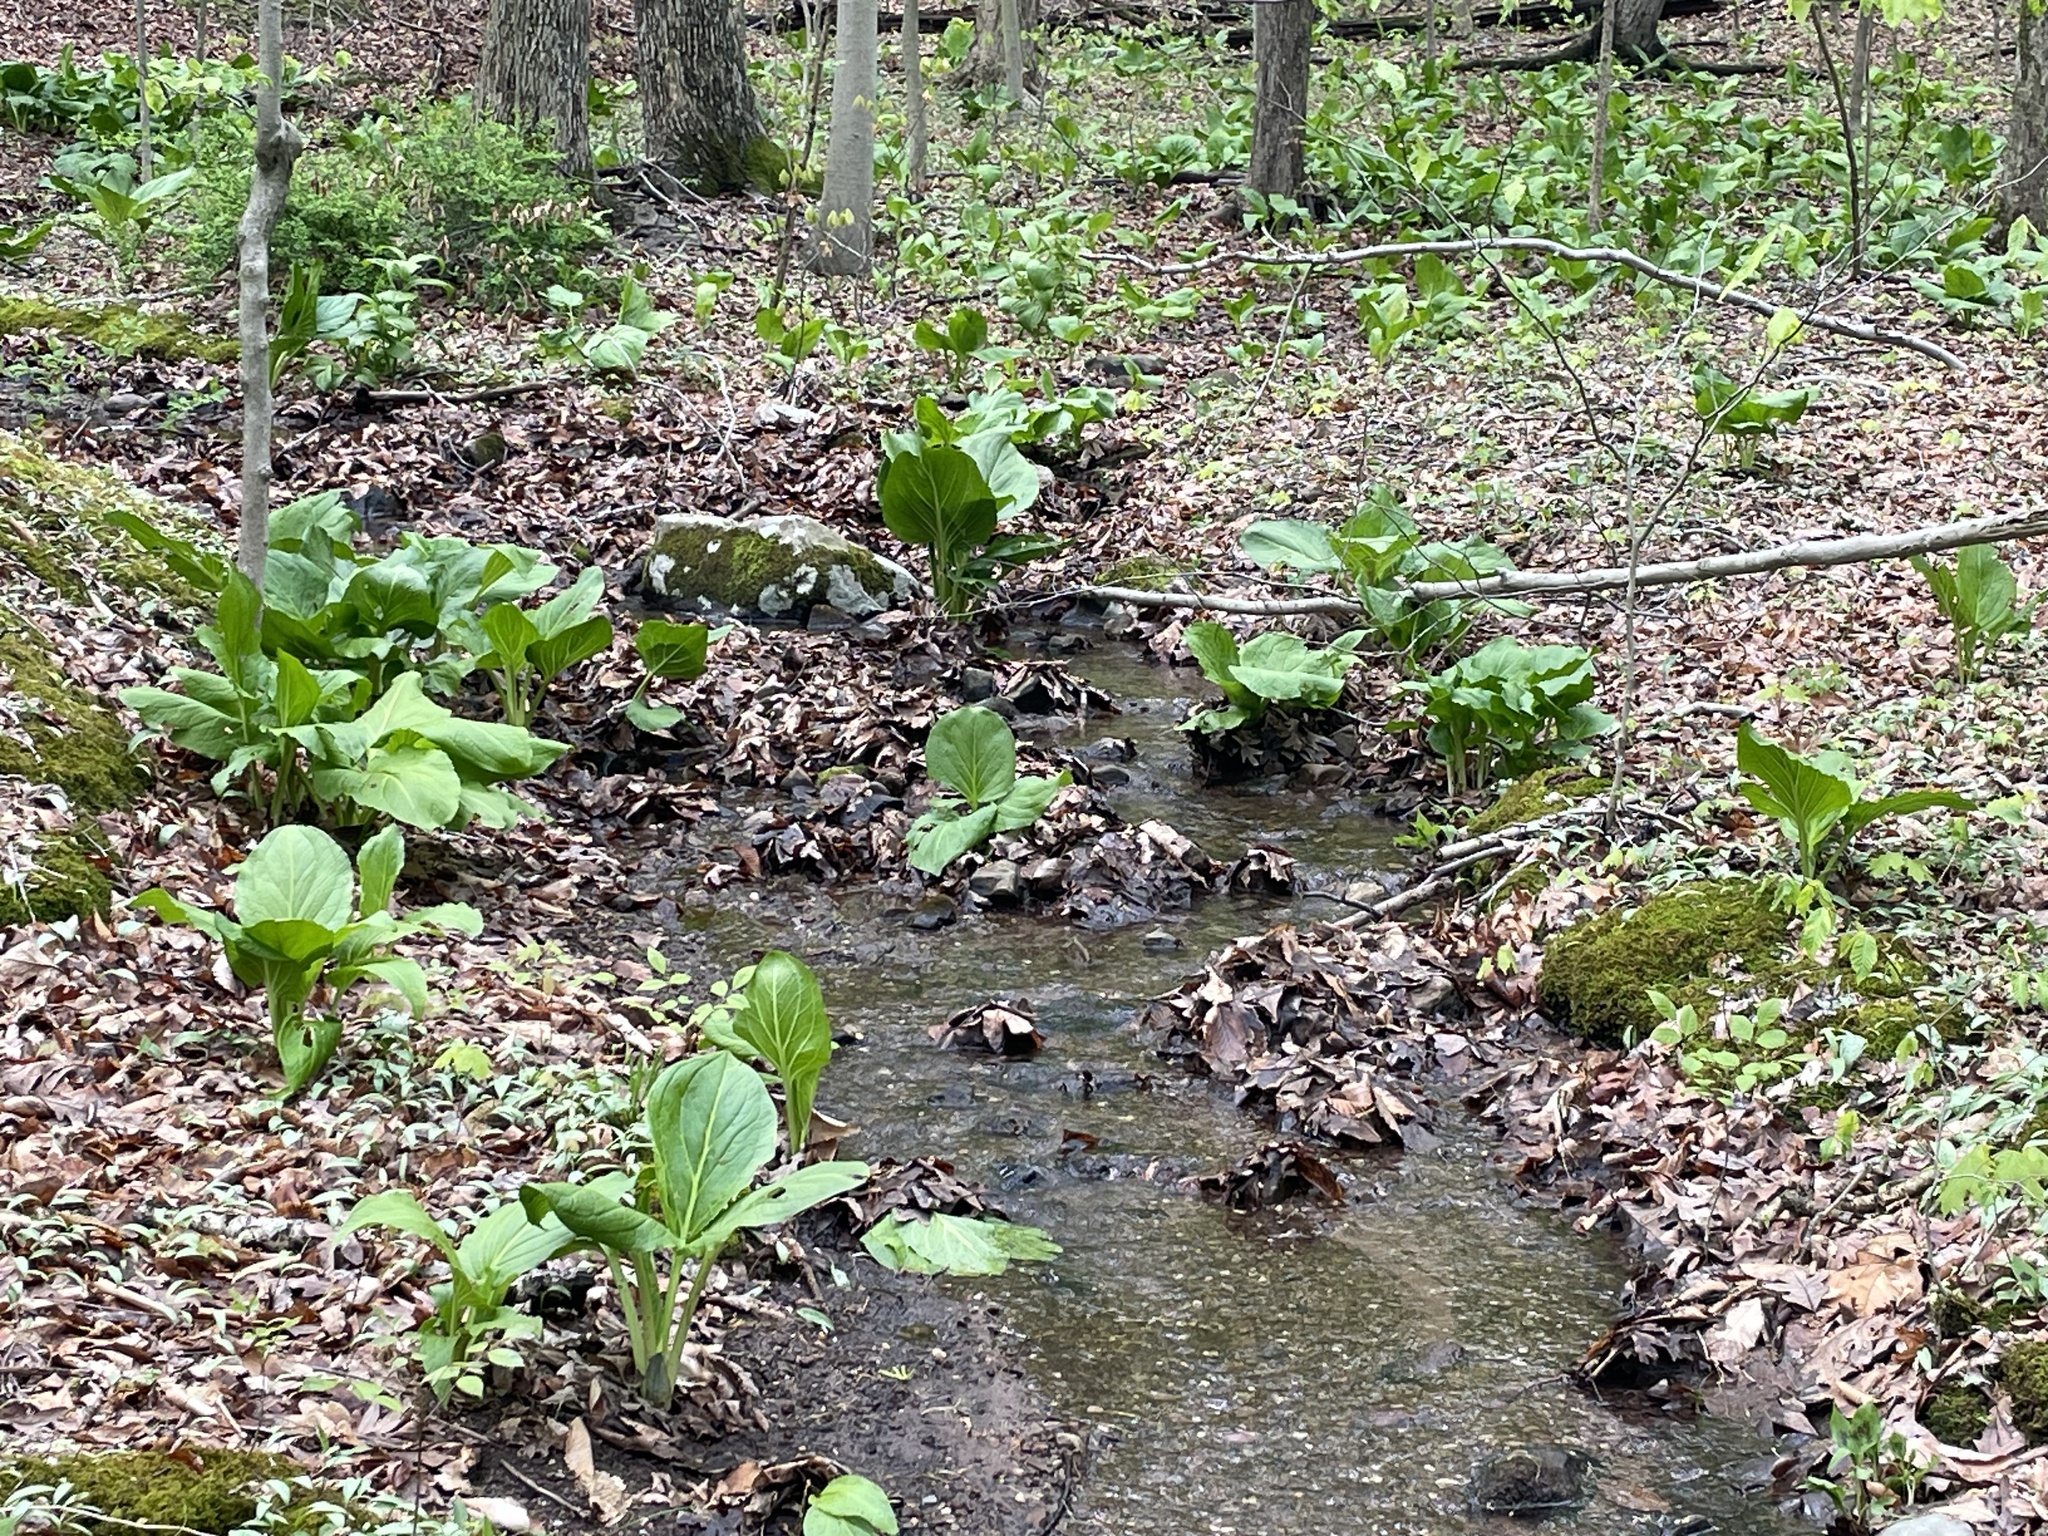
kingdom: Plantae
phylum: Tracheophyta
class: Liliopsida
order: Alismatales
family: Araceae
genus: Symplocarpus
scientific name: Symplocarpus foetidus
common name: Eastern skunk cabbage
